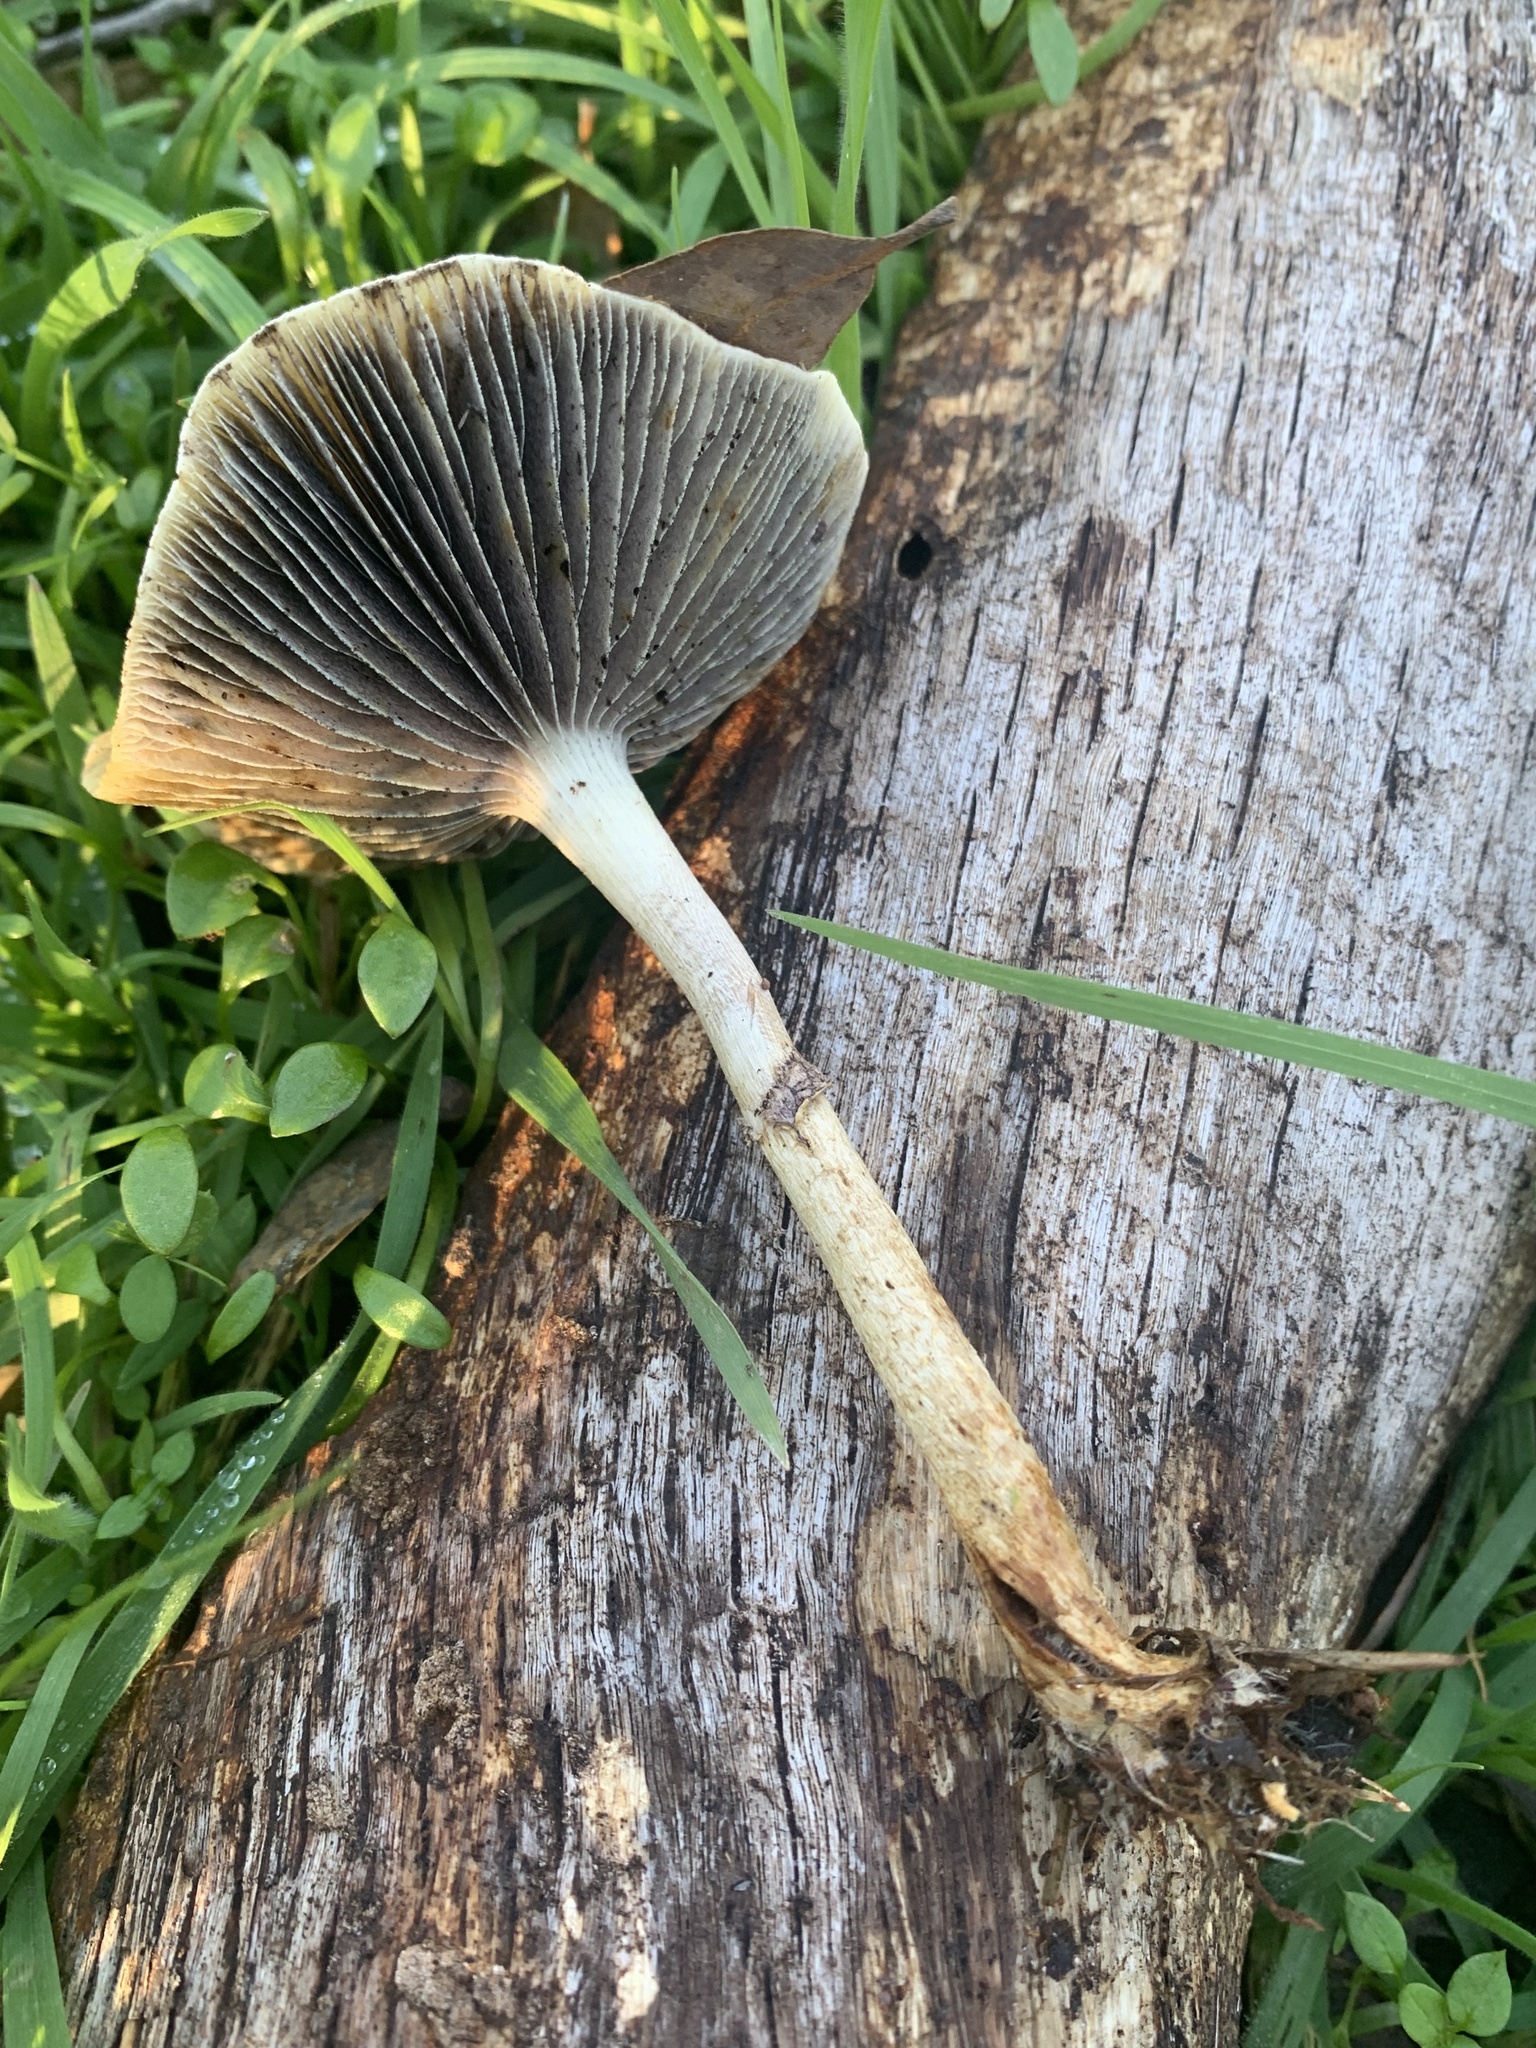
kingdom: Fungi
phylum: Basidiomycota
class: Agaricomycetes
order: Agaricales
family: Strophariaceae
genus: Leratiomyces
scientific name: Leratiomyces percevalii
